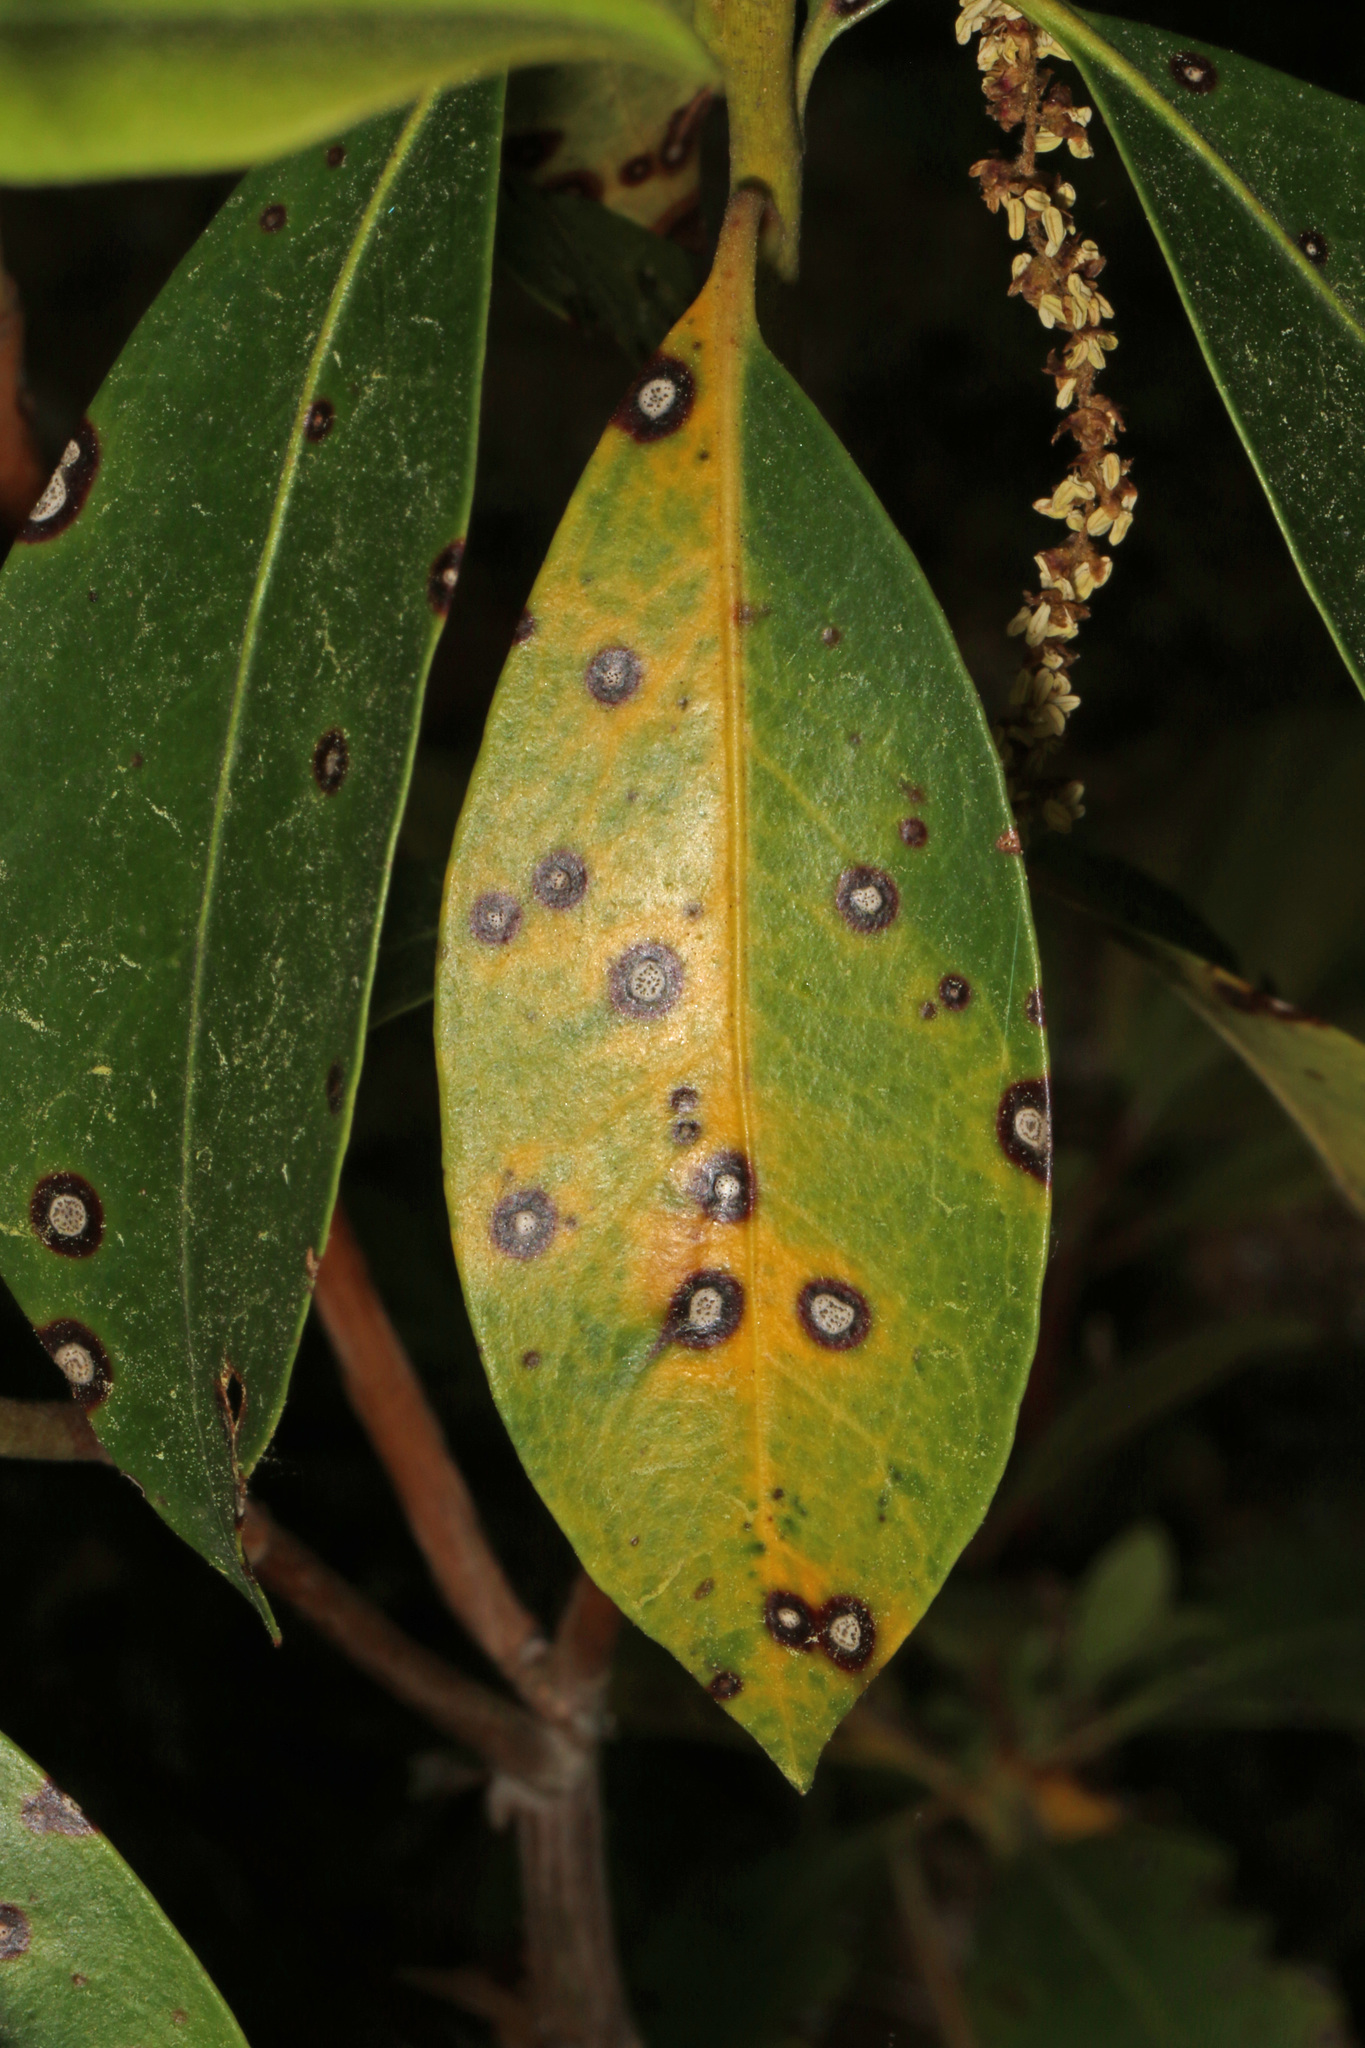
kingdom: Fungi
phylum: Ascomycota
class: Dothideomycetes
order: Mycosphaerellales
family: Mycosphaerellaceae
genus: Mycosphaerella
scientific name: Mycosphaerella colorata
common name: Mountain laurel leaf spot
